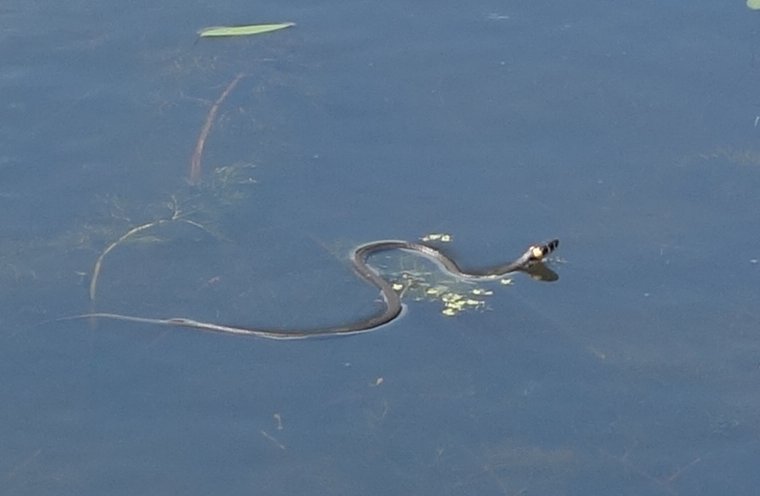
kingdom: Animalia
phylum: Chordata
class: Squamata
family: Colubridae
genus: Natrix
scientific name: Natrix natrix
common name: Grass snake
